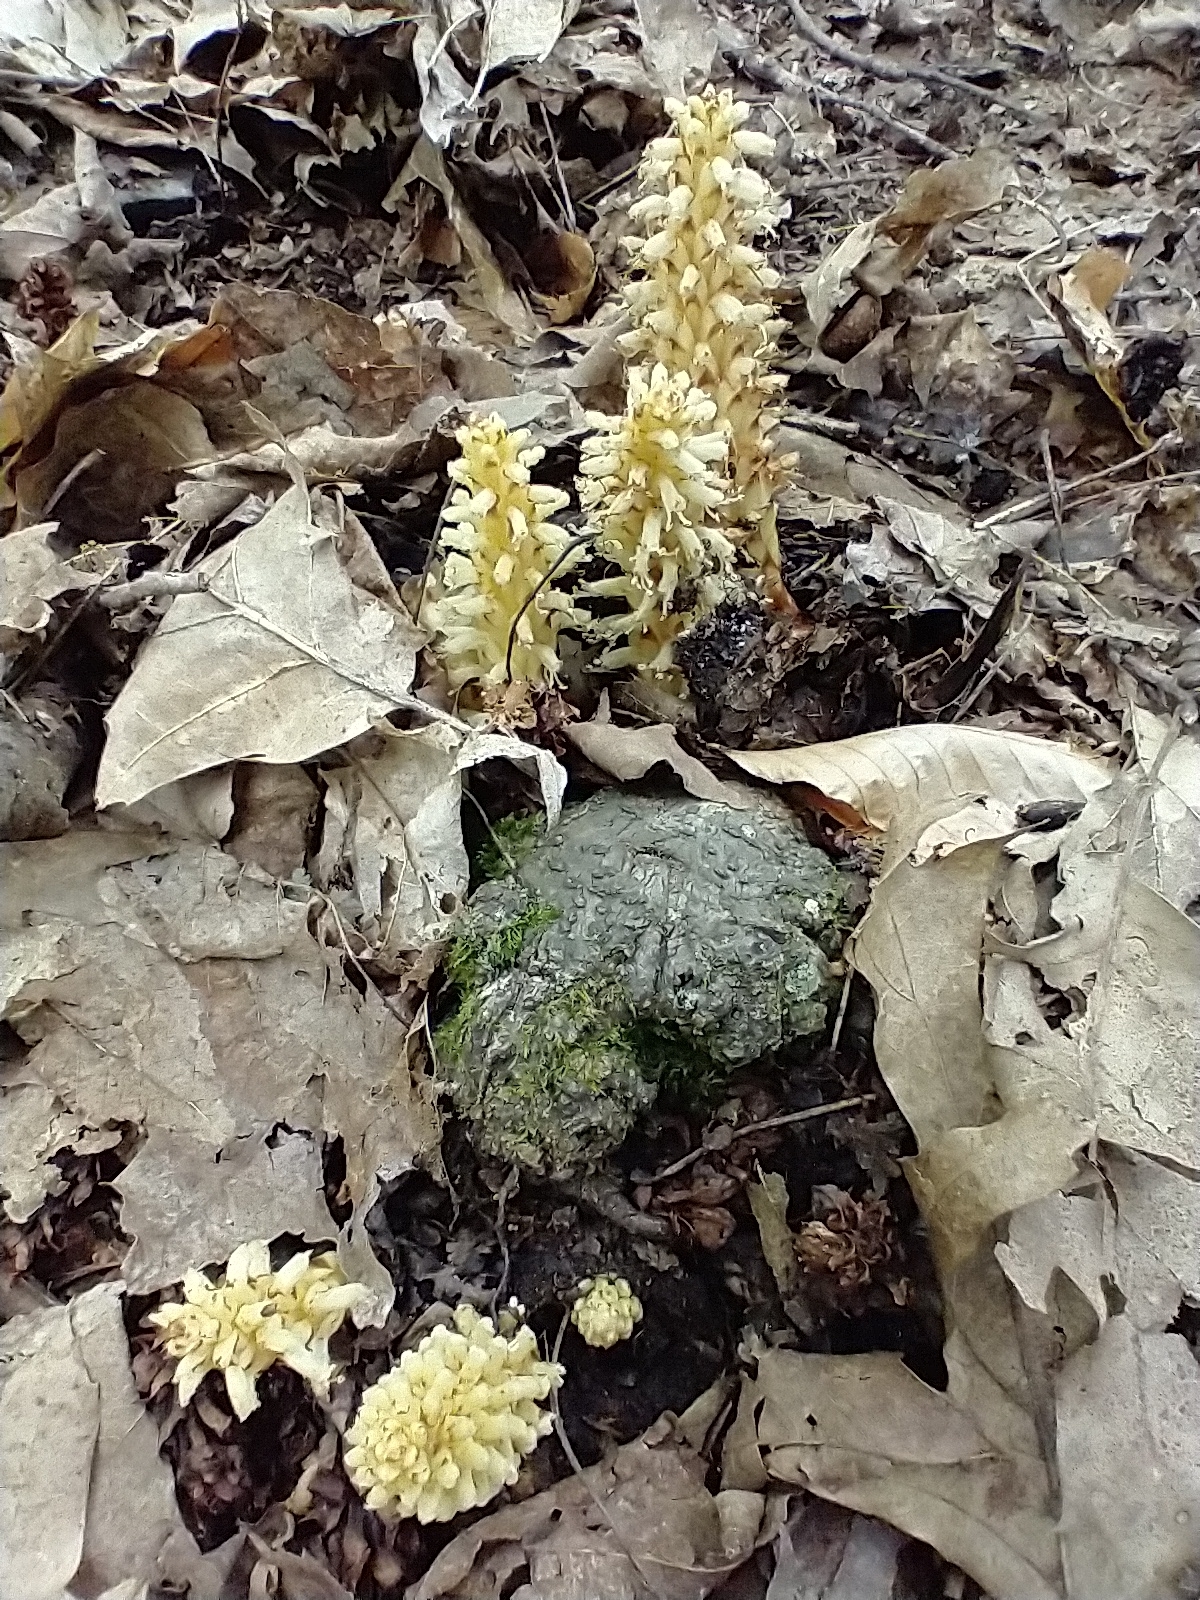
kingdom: Plantae
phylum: Tracheophyta
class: Magnoliopsida
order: Lamiales
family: Orobanchaceae
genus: Conopholis
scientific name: Conopholis americana
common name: American cancer-root
